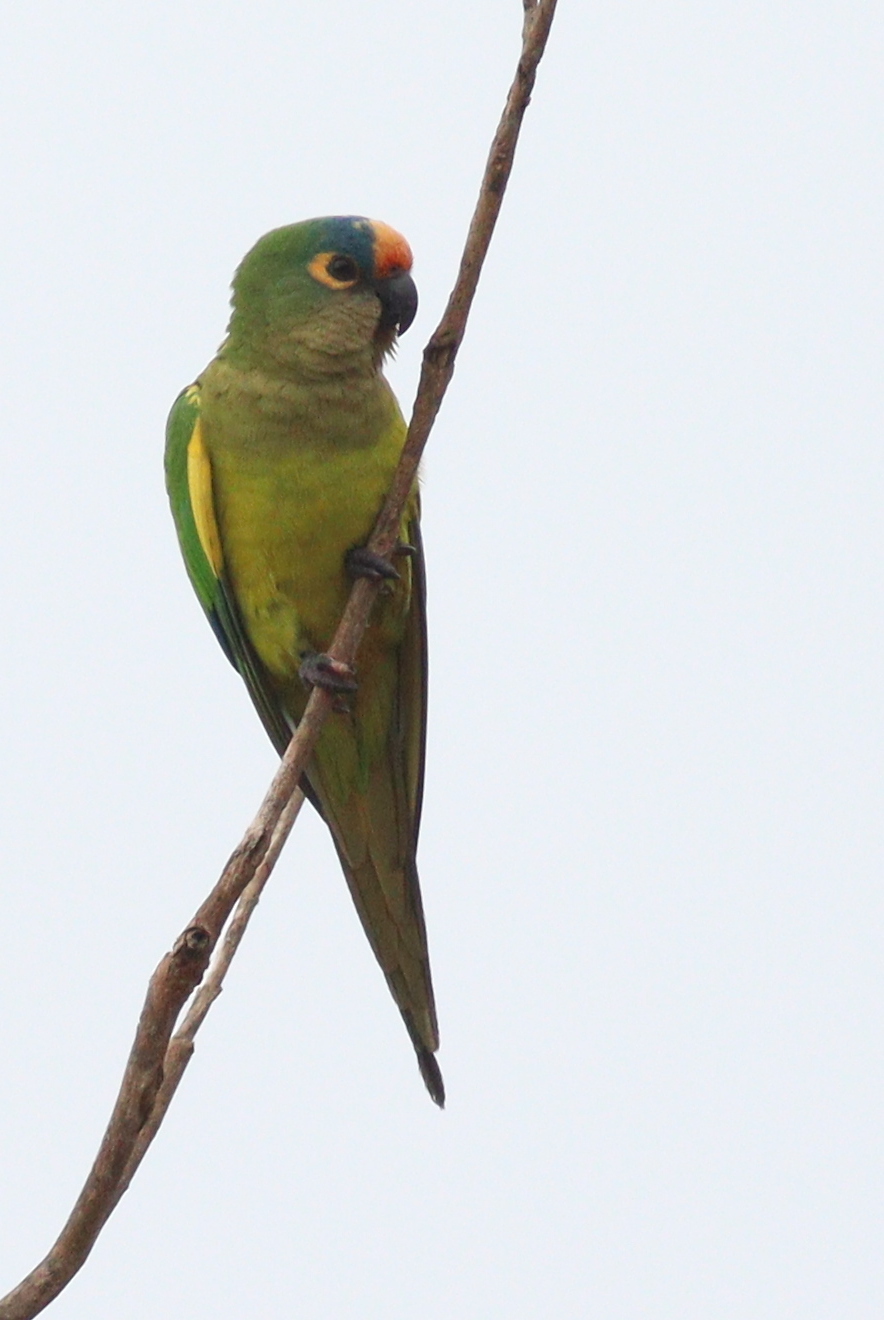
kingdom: Animalia
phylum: Chordata
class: Aves
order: Psittaciformes
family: Psittacidae
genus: Aratinga
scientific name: Aratinga aurea
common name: Peach-fronted parakeet
